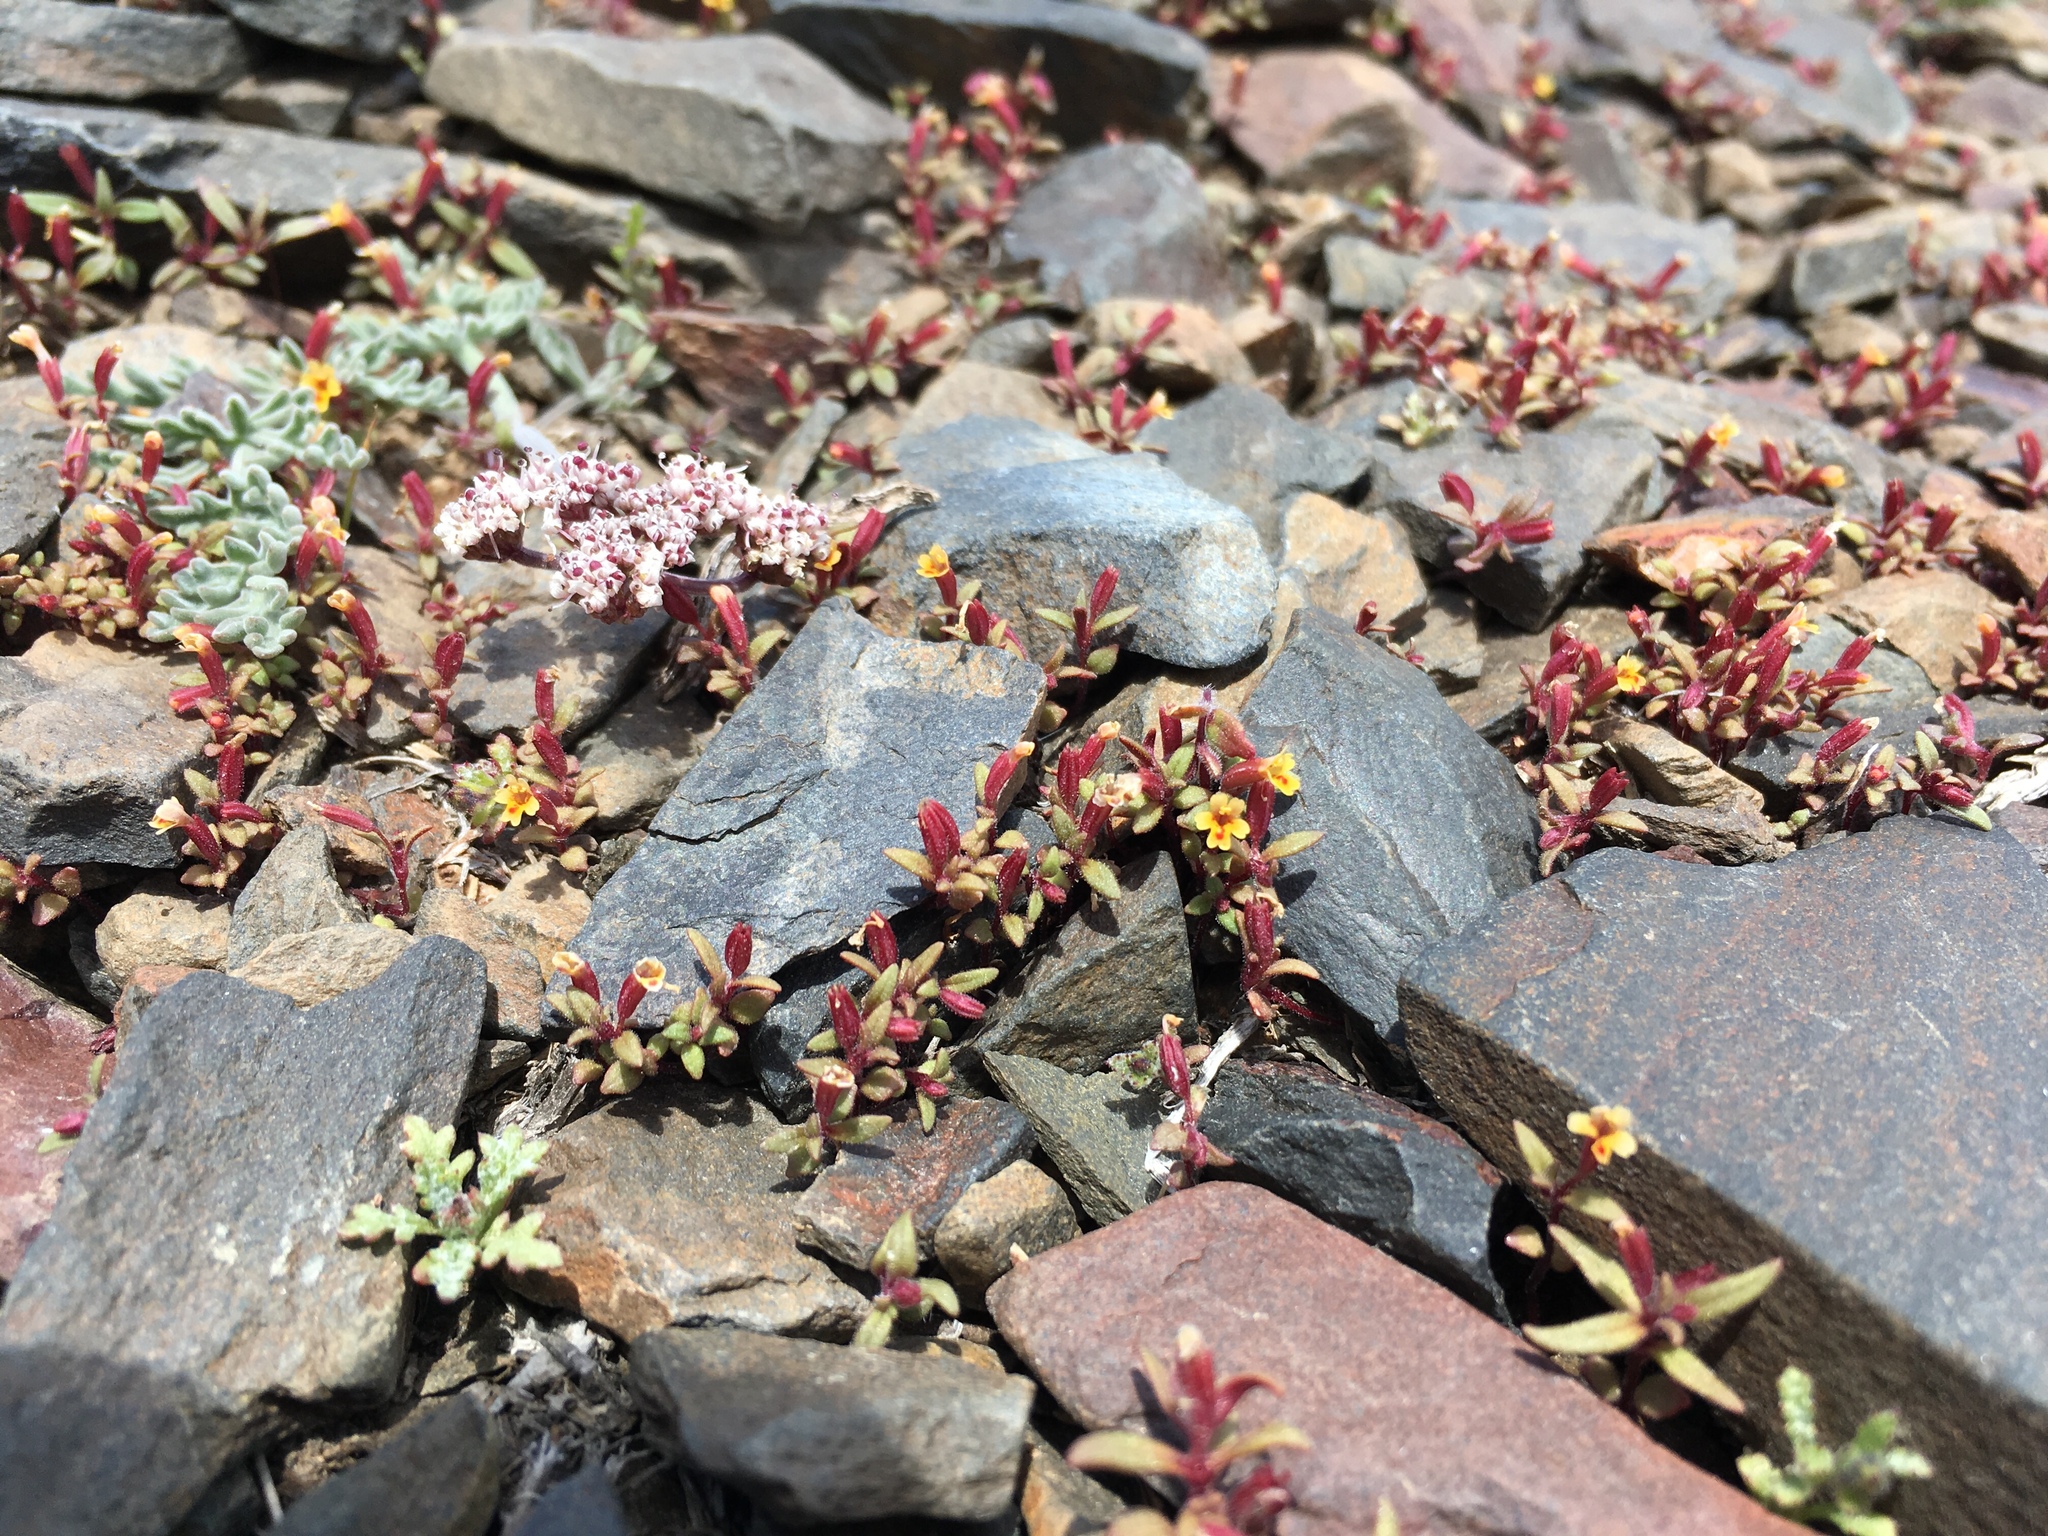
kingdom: Plantae
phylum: Tracheophyta
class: Magnoliopsida
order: Lamiales
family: Phrymaceae
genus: Erythranthe
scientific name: Erythranthe suksdorfii
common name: Suksdorf's monkeyflower
